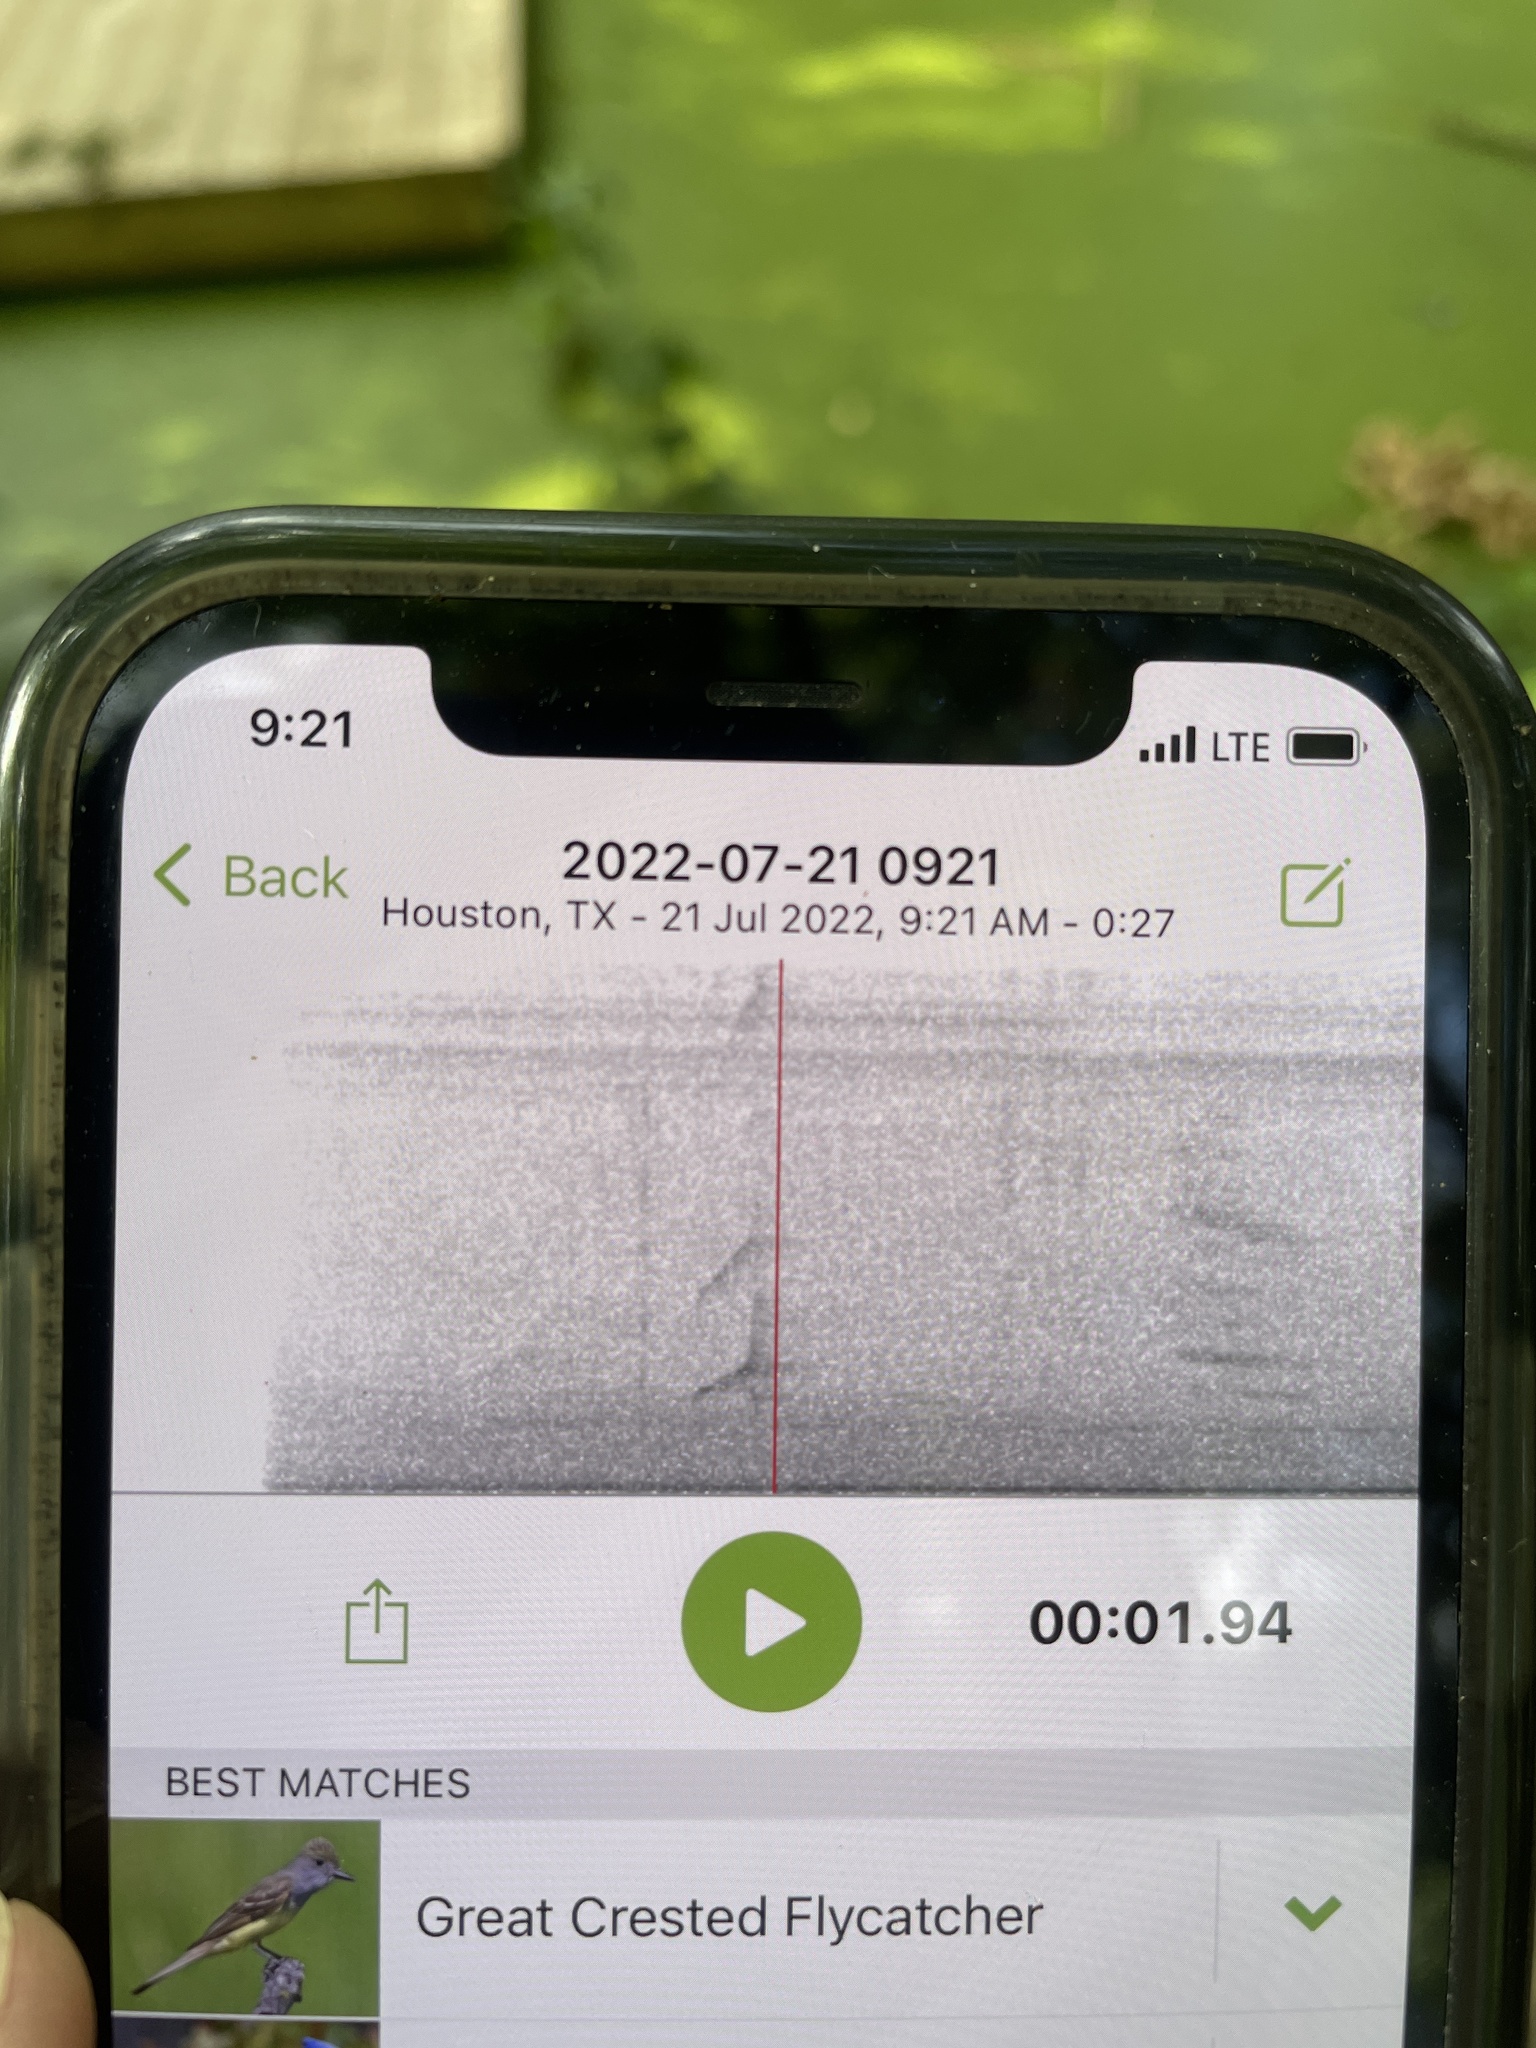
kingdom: Animalia
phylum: Chordata
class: Aves
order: Passeriformes
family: Tyrannidae
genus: Myiarchus
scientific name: Myiarchus crinitus
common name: Great crested flycatcher
